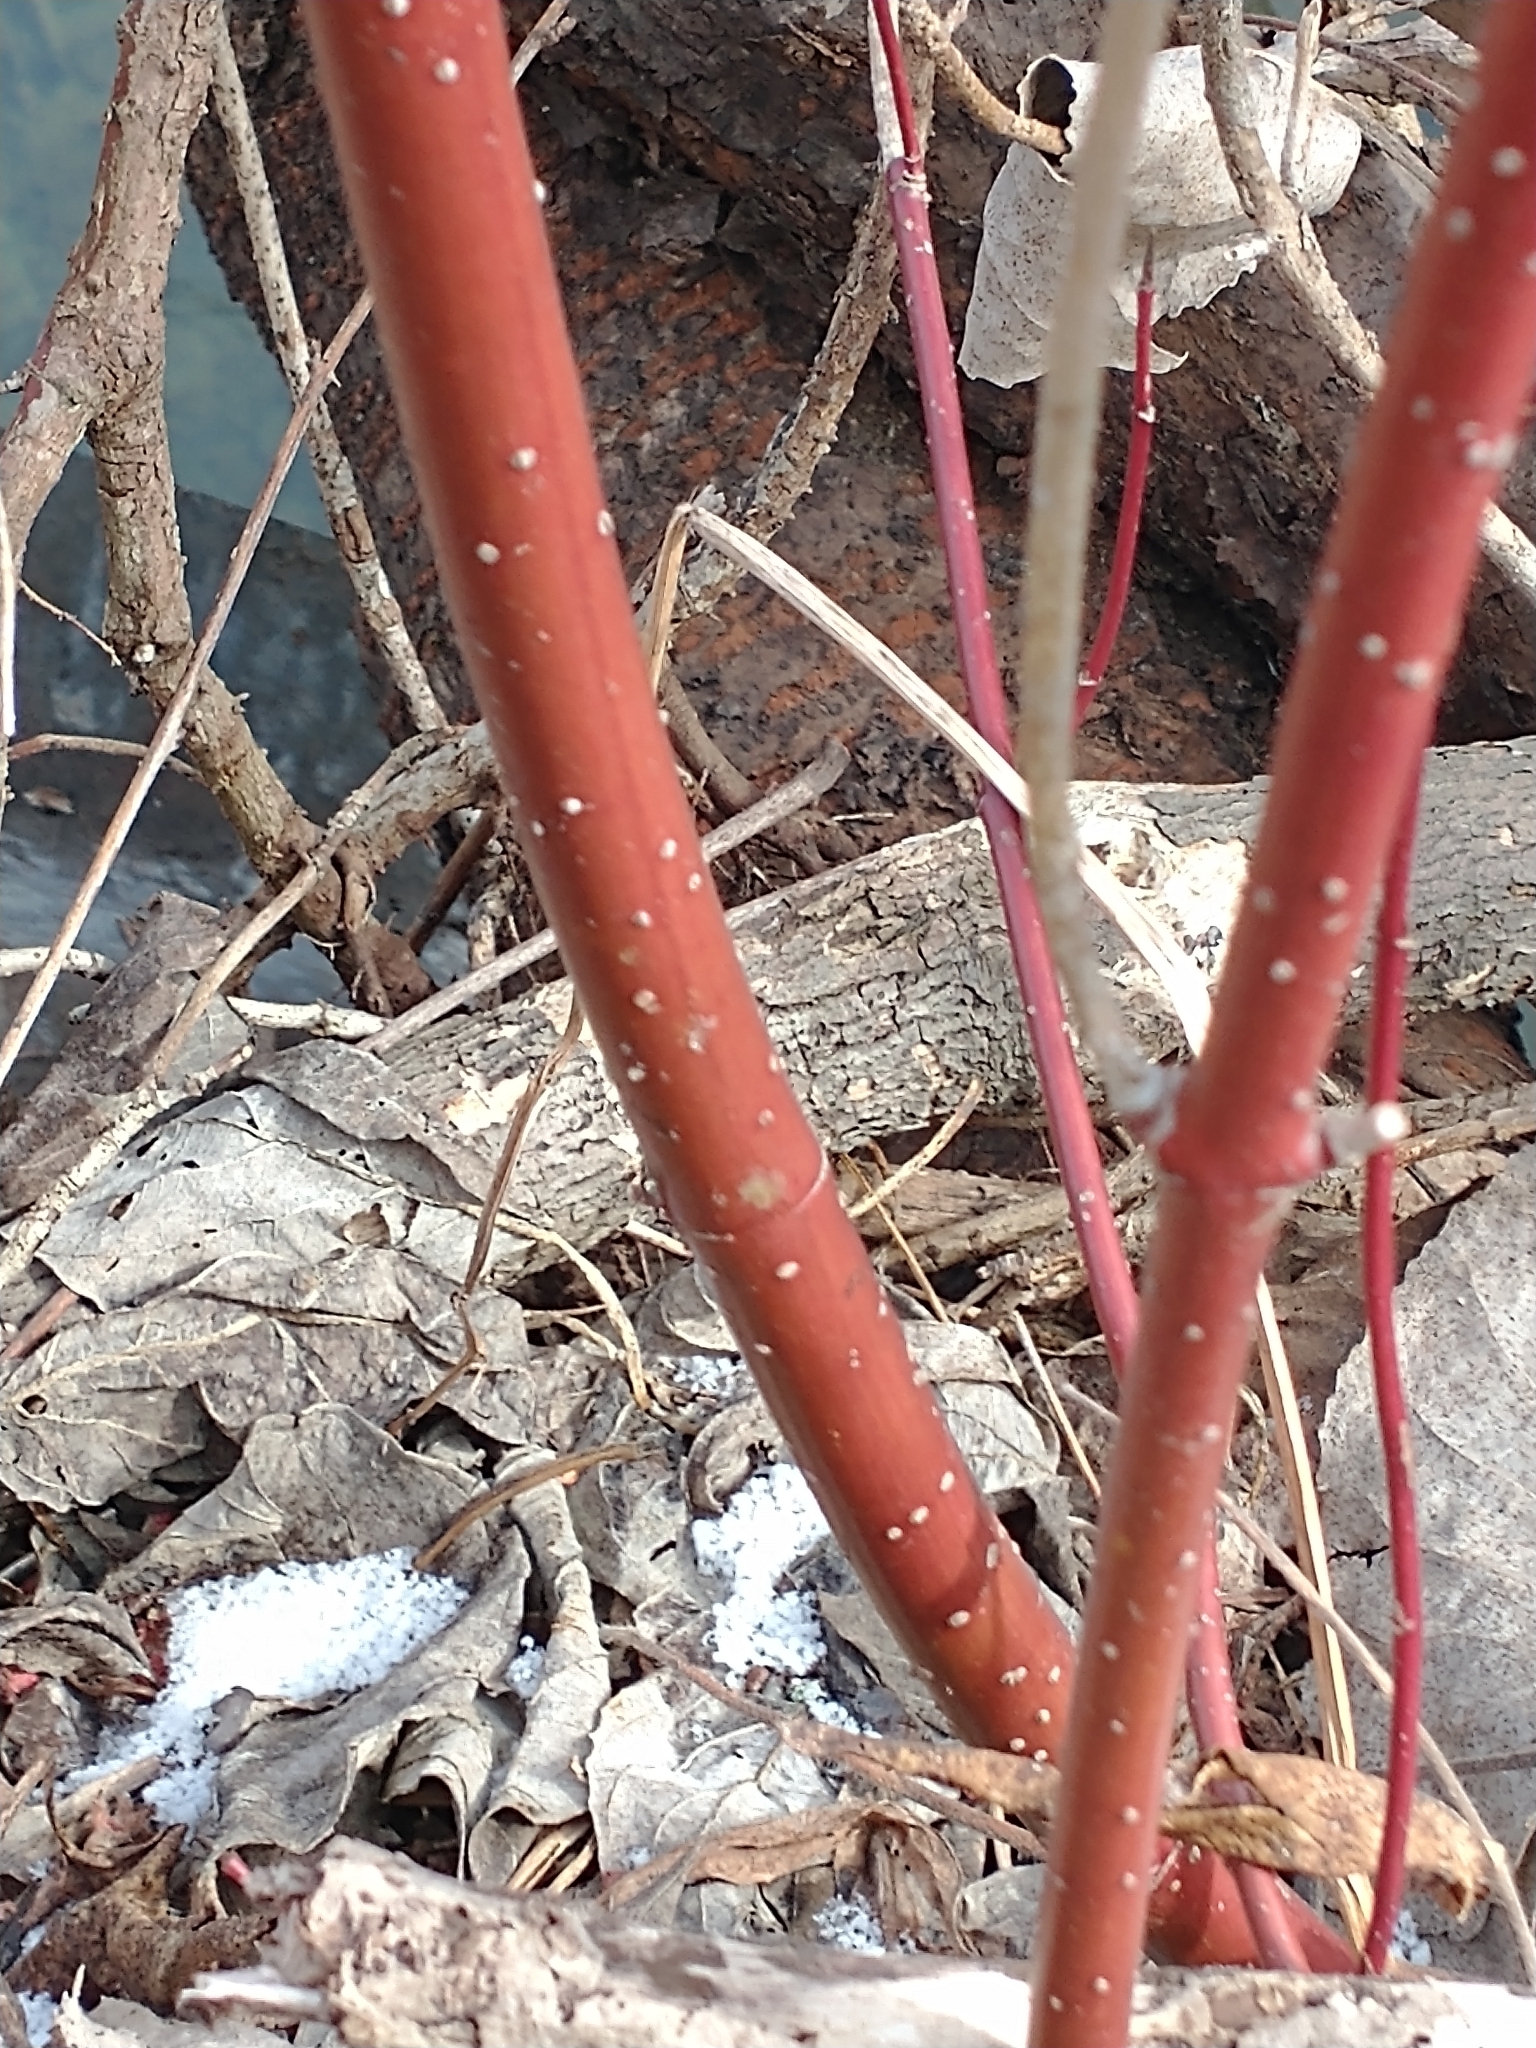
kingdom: Plantae
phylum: Tracheophyta
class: Magnoliopsida
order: Cornales
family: Cornaceae
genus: Cornus
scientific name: Cornus sericea
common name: Red-osier dogwood
